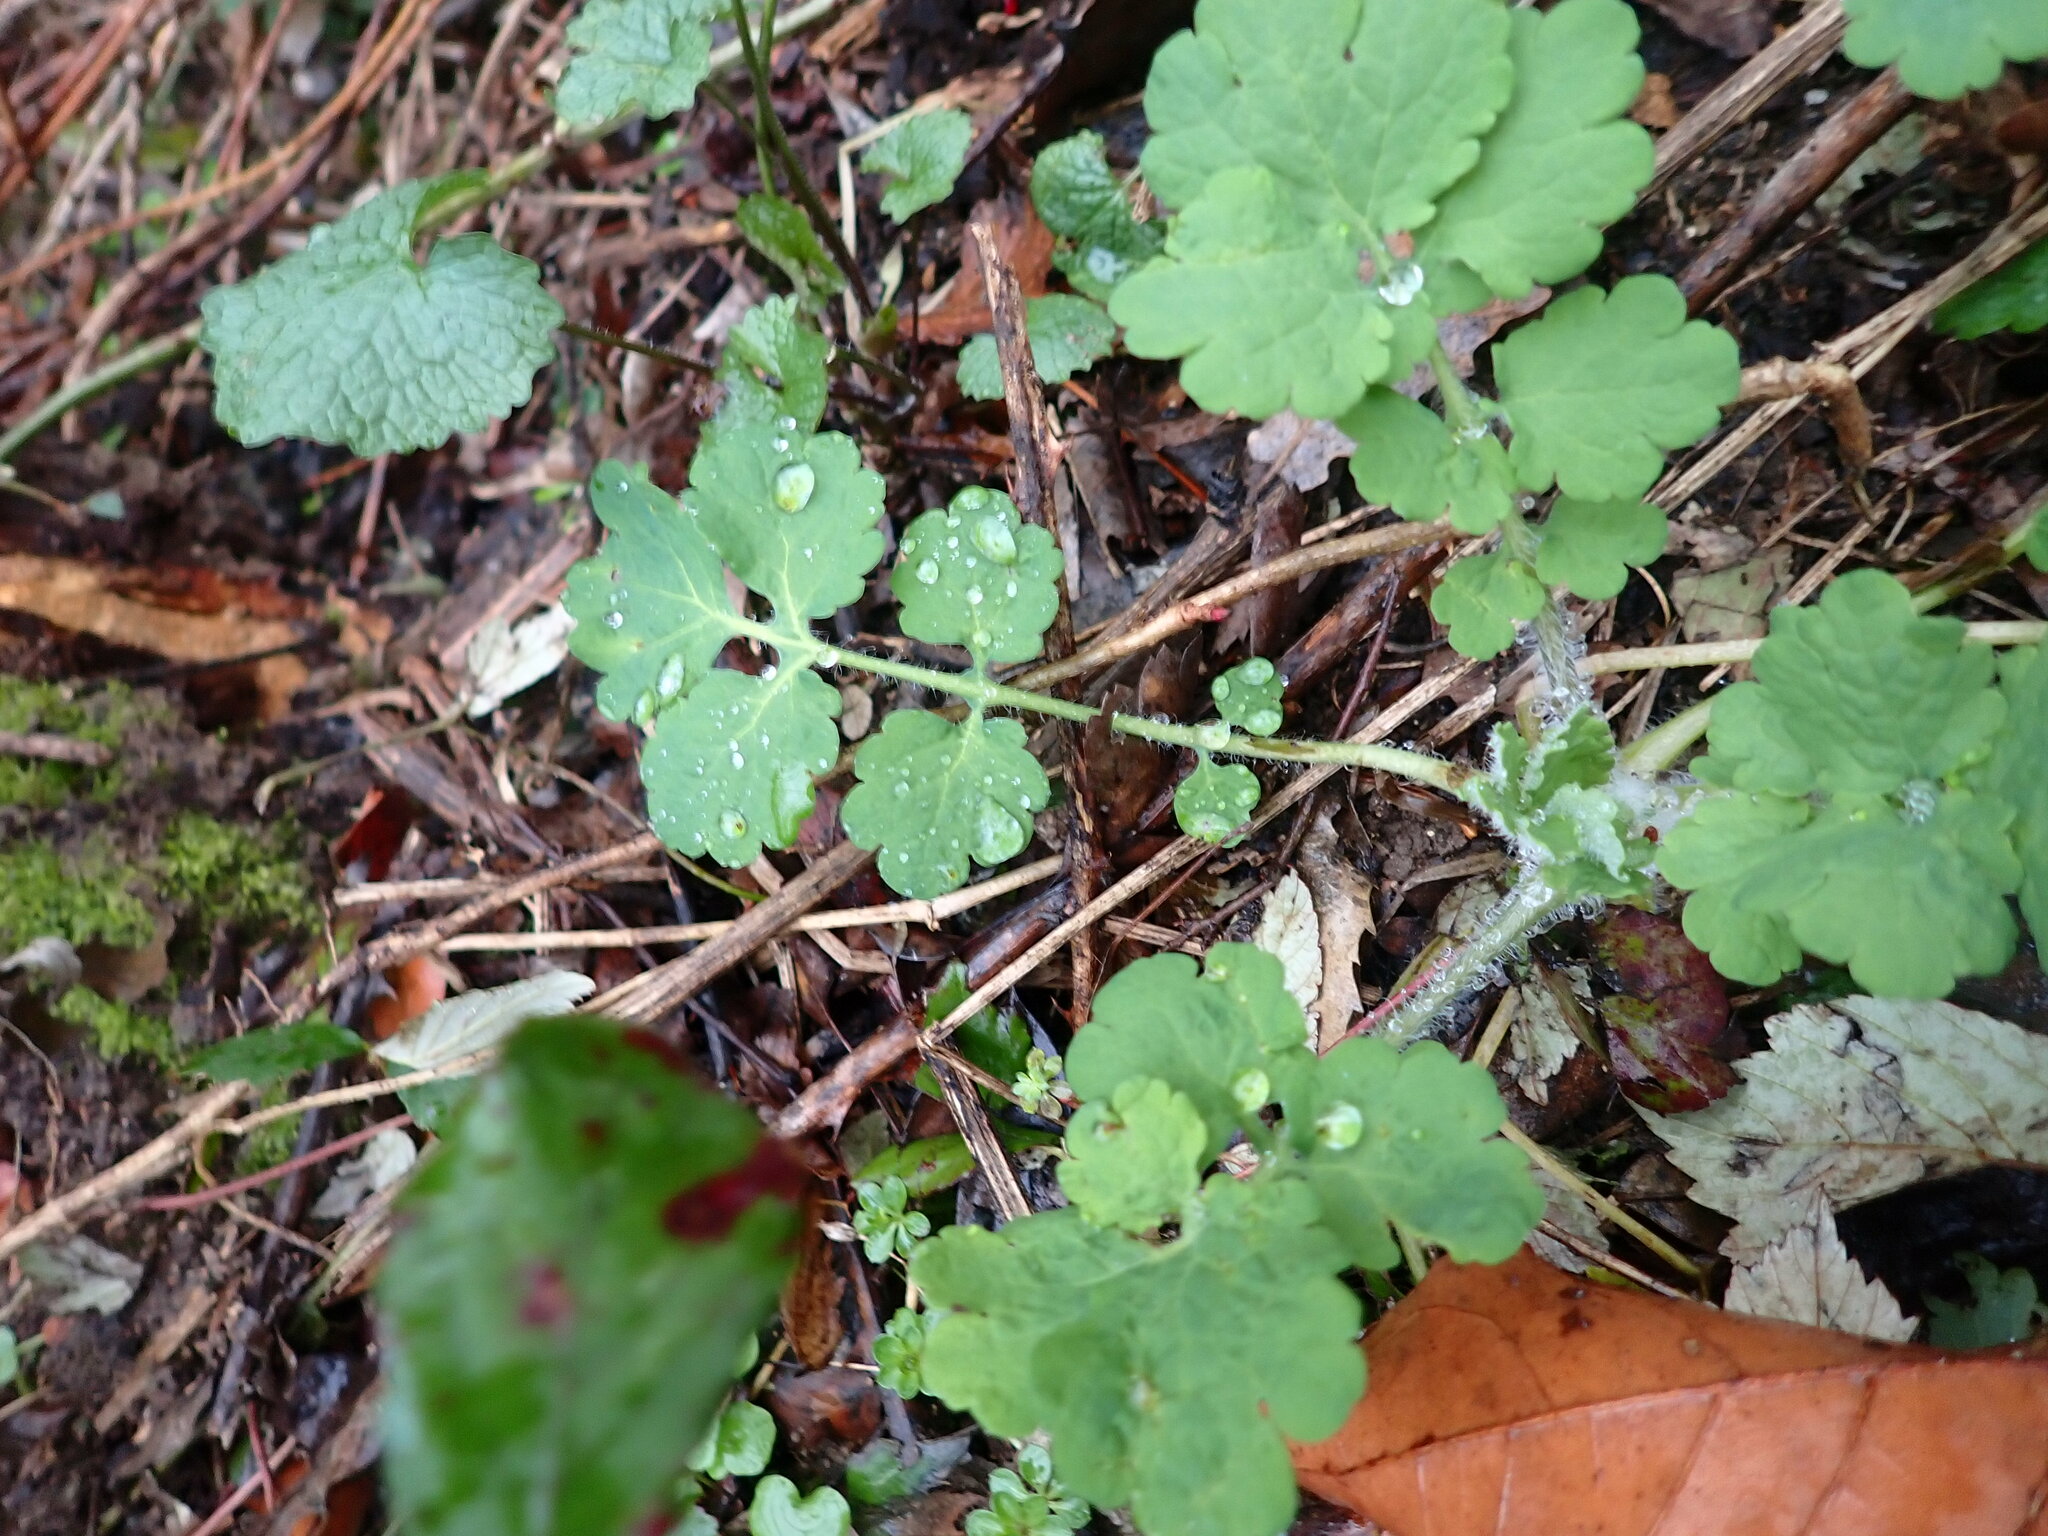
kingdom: Plantae
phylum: Tracheophyta
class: Magnoliopsida
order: Ranunculales
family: Papaveraceae
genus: Chelidonium
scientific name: Chelidonium majus
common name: Greater celandine
